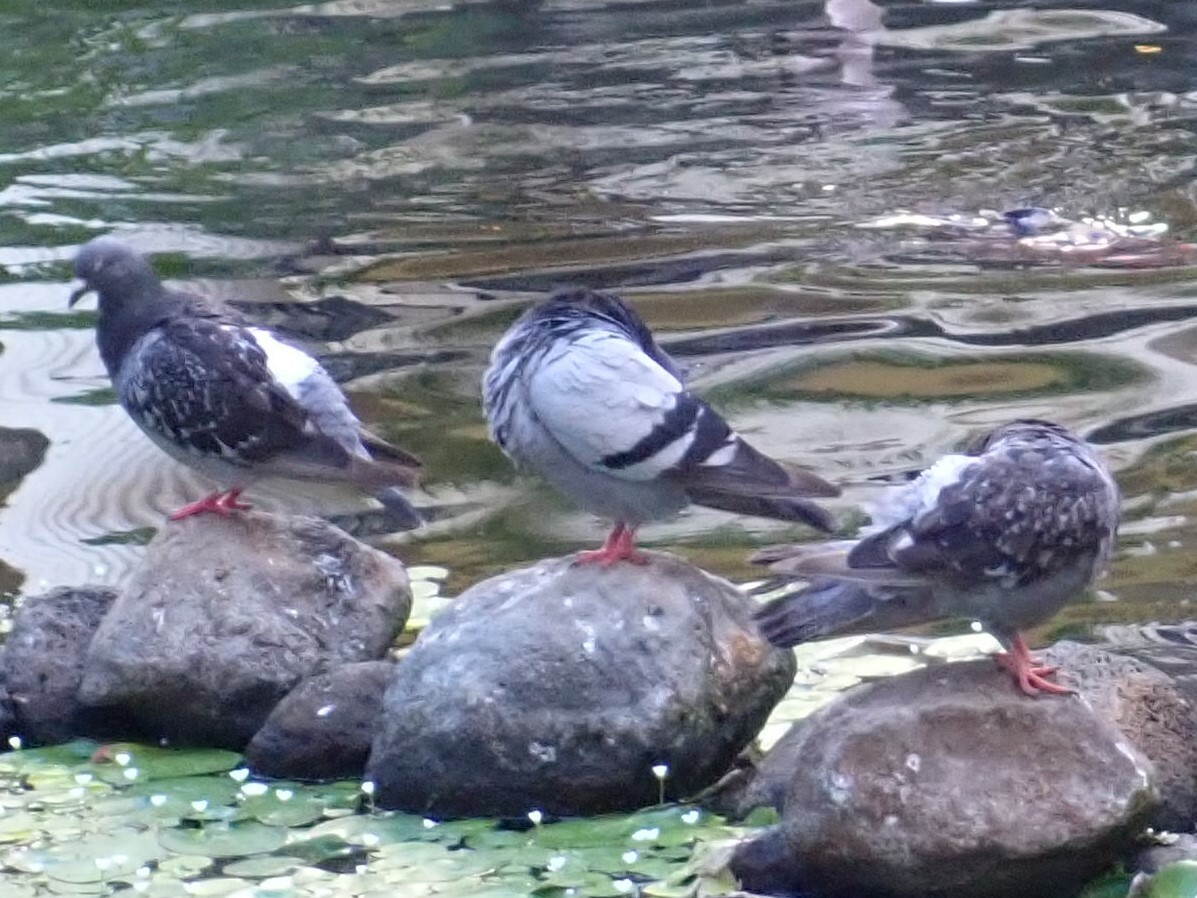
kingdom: Animalia
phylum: Chordata
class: Aves
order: Columbiformes
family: Columbidae
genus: Columba
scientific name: Columba livia
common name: Rock pigeon
